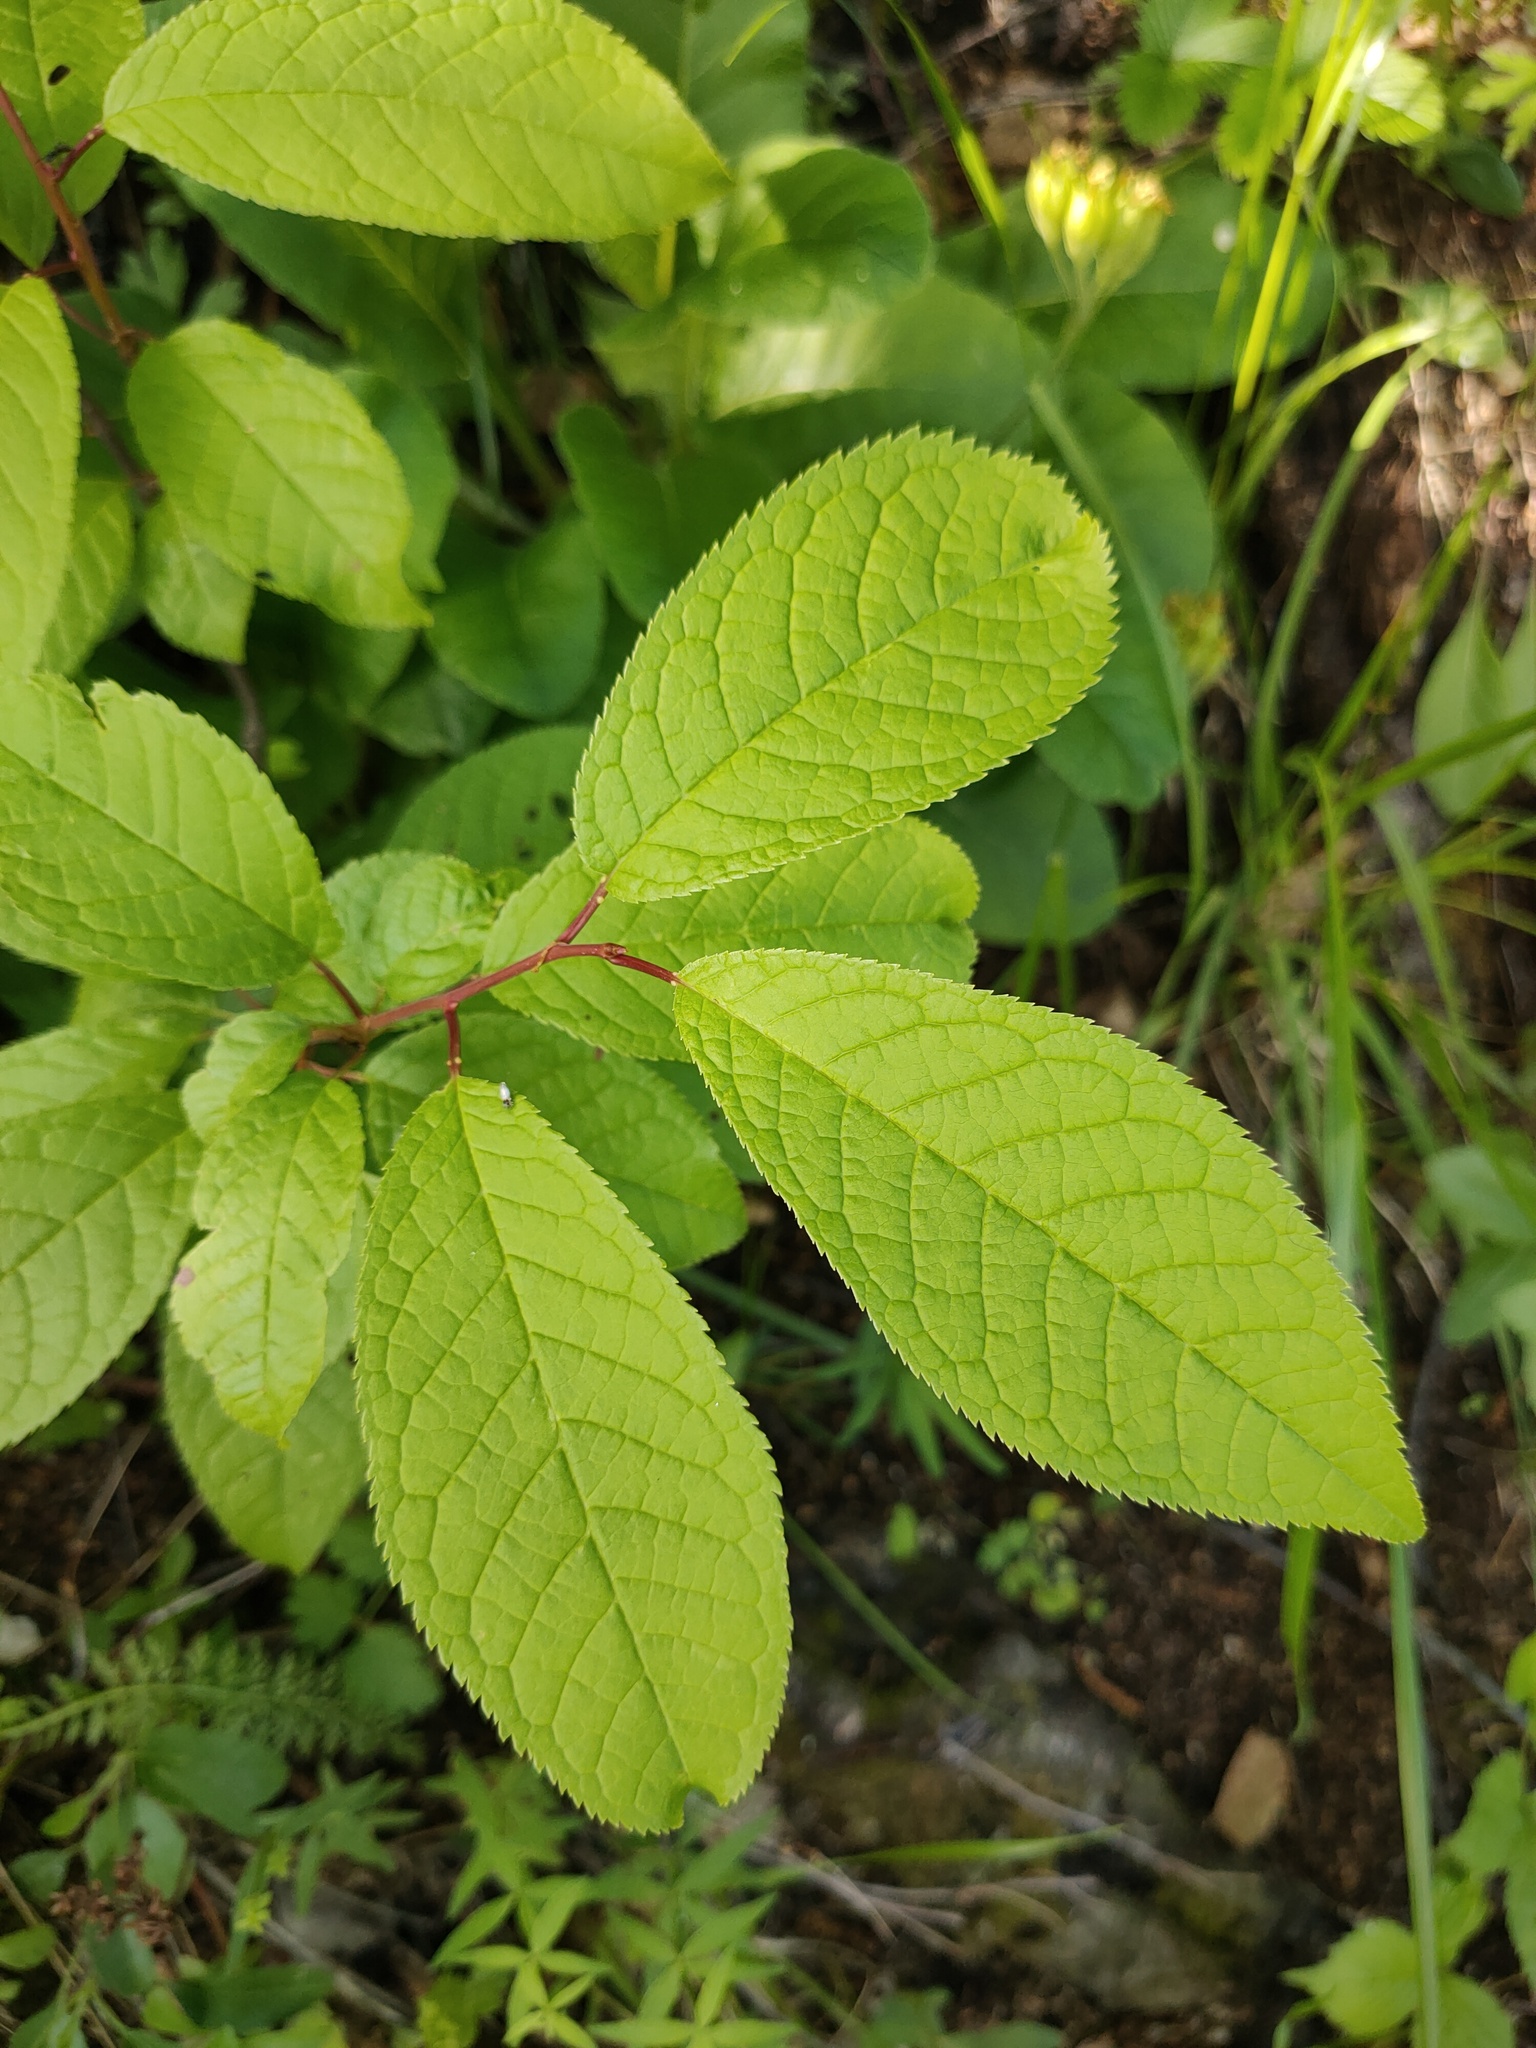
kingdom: Plantae
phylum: Tracheophyta
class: Magnoliopsida
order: Rosales
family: Rosaceae
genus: Prunus
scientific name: Prunus padus
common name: Bird cherry
